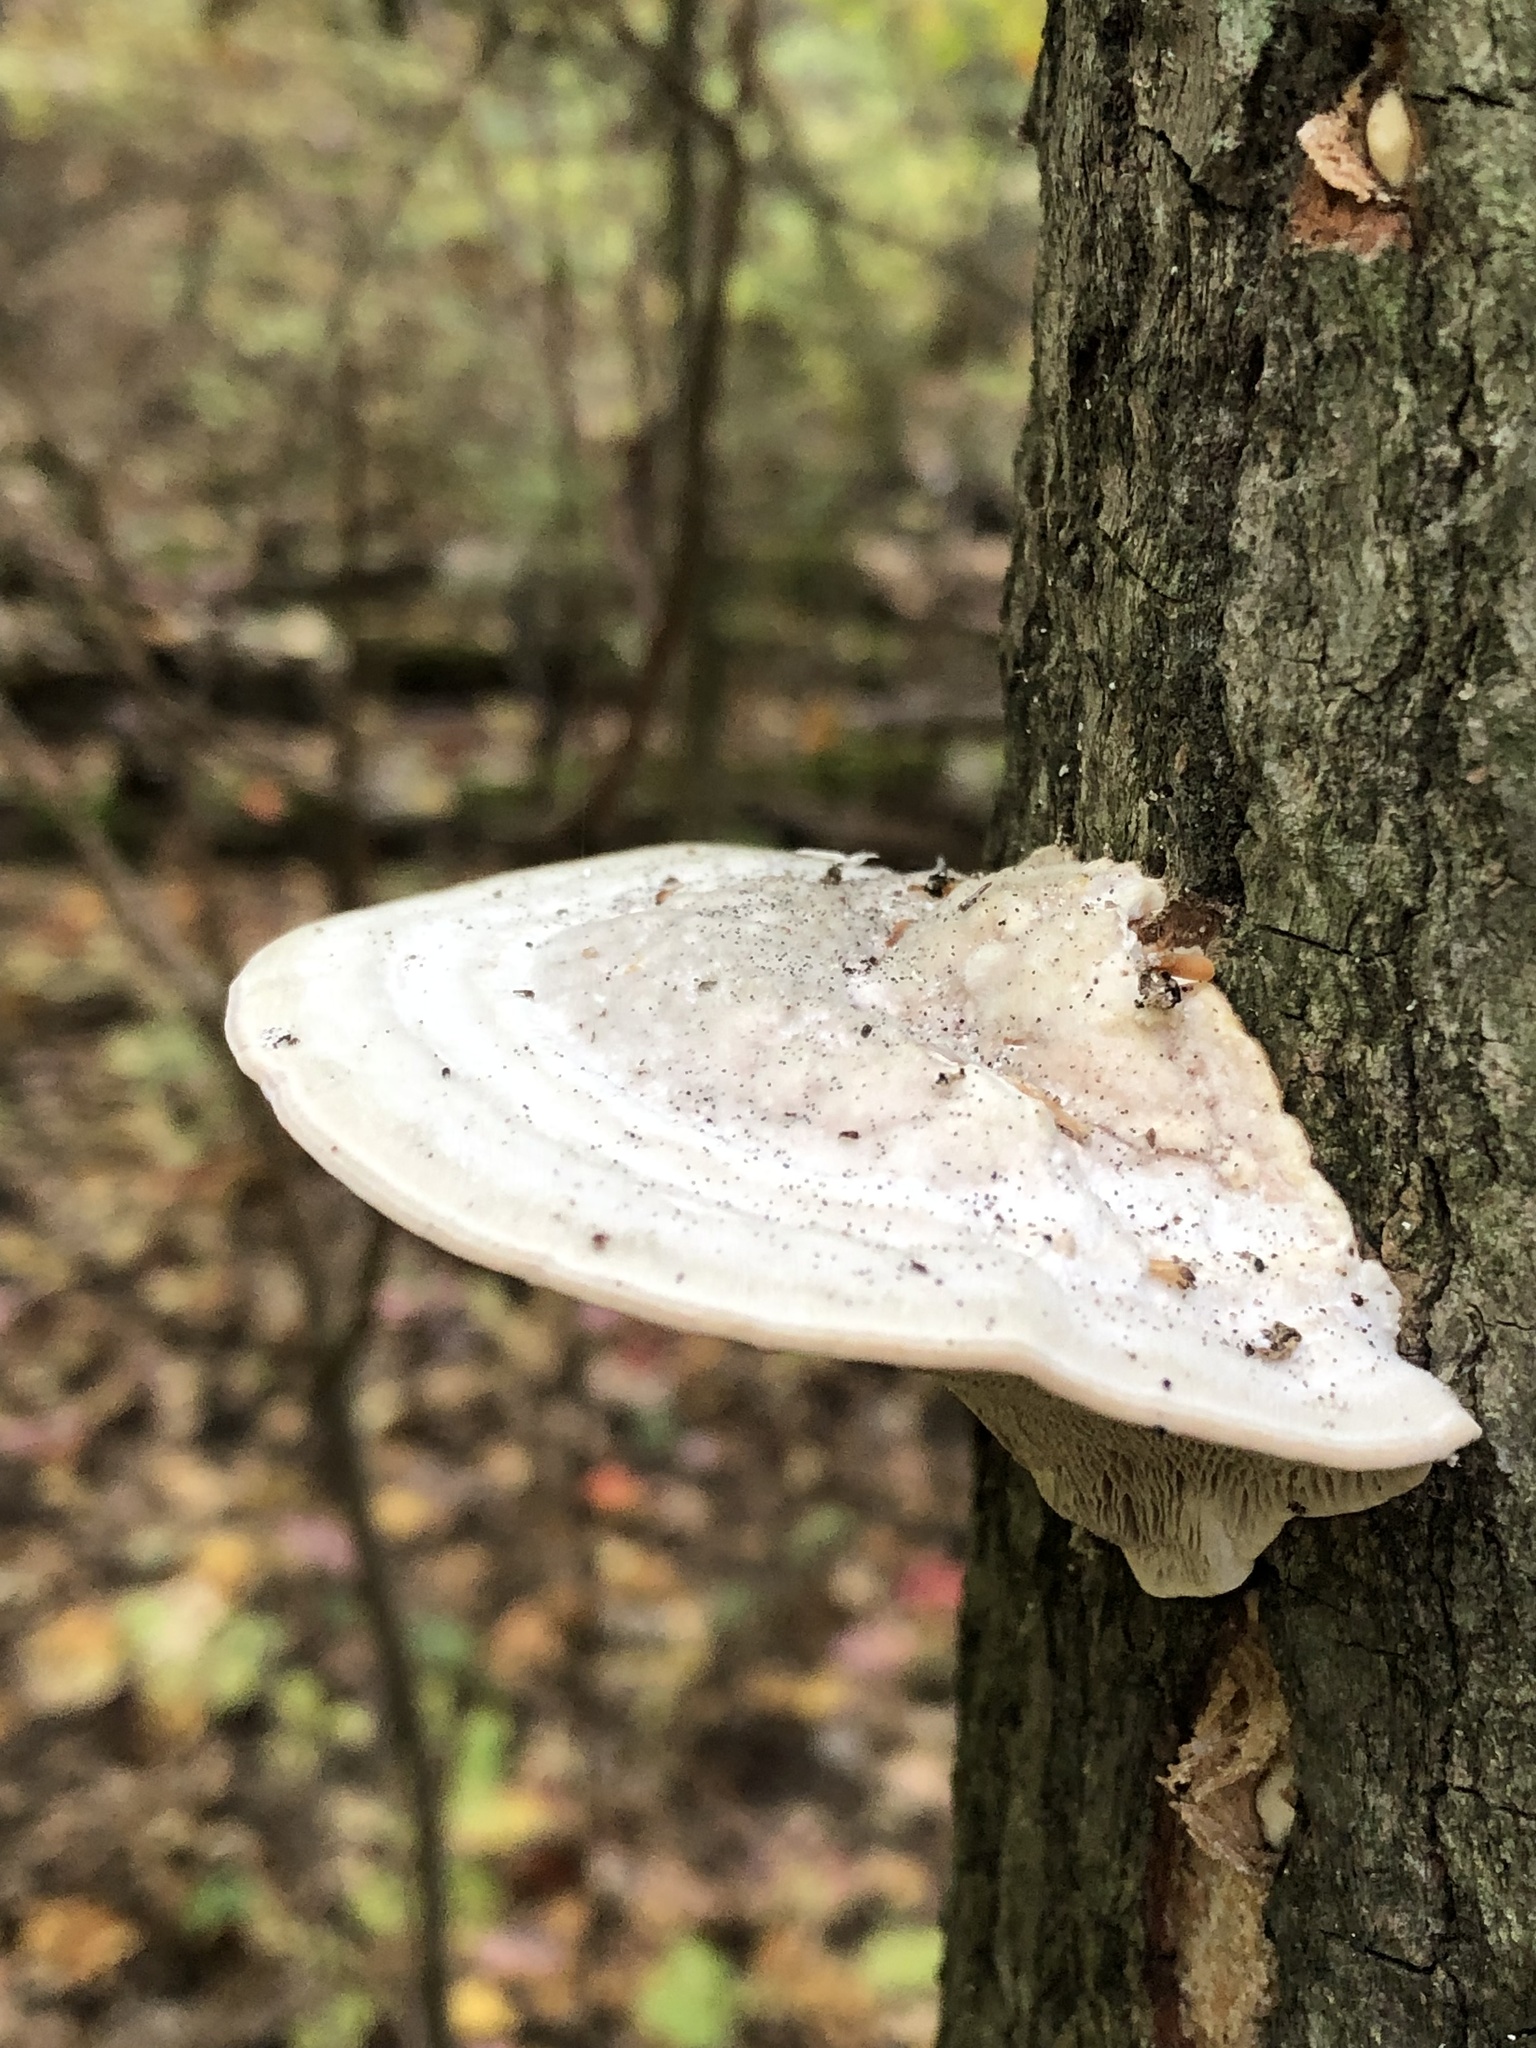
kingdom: Fungi
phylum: Basidiomycota
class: Agaricomycetes
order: Polyporales
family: Polyporaceae
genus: Trametes
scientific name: Trametes gibbosa
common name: Lumpy bracket
